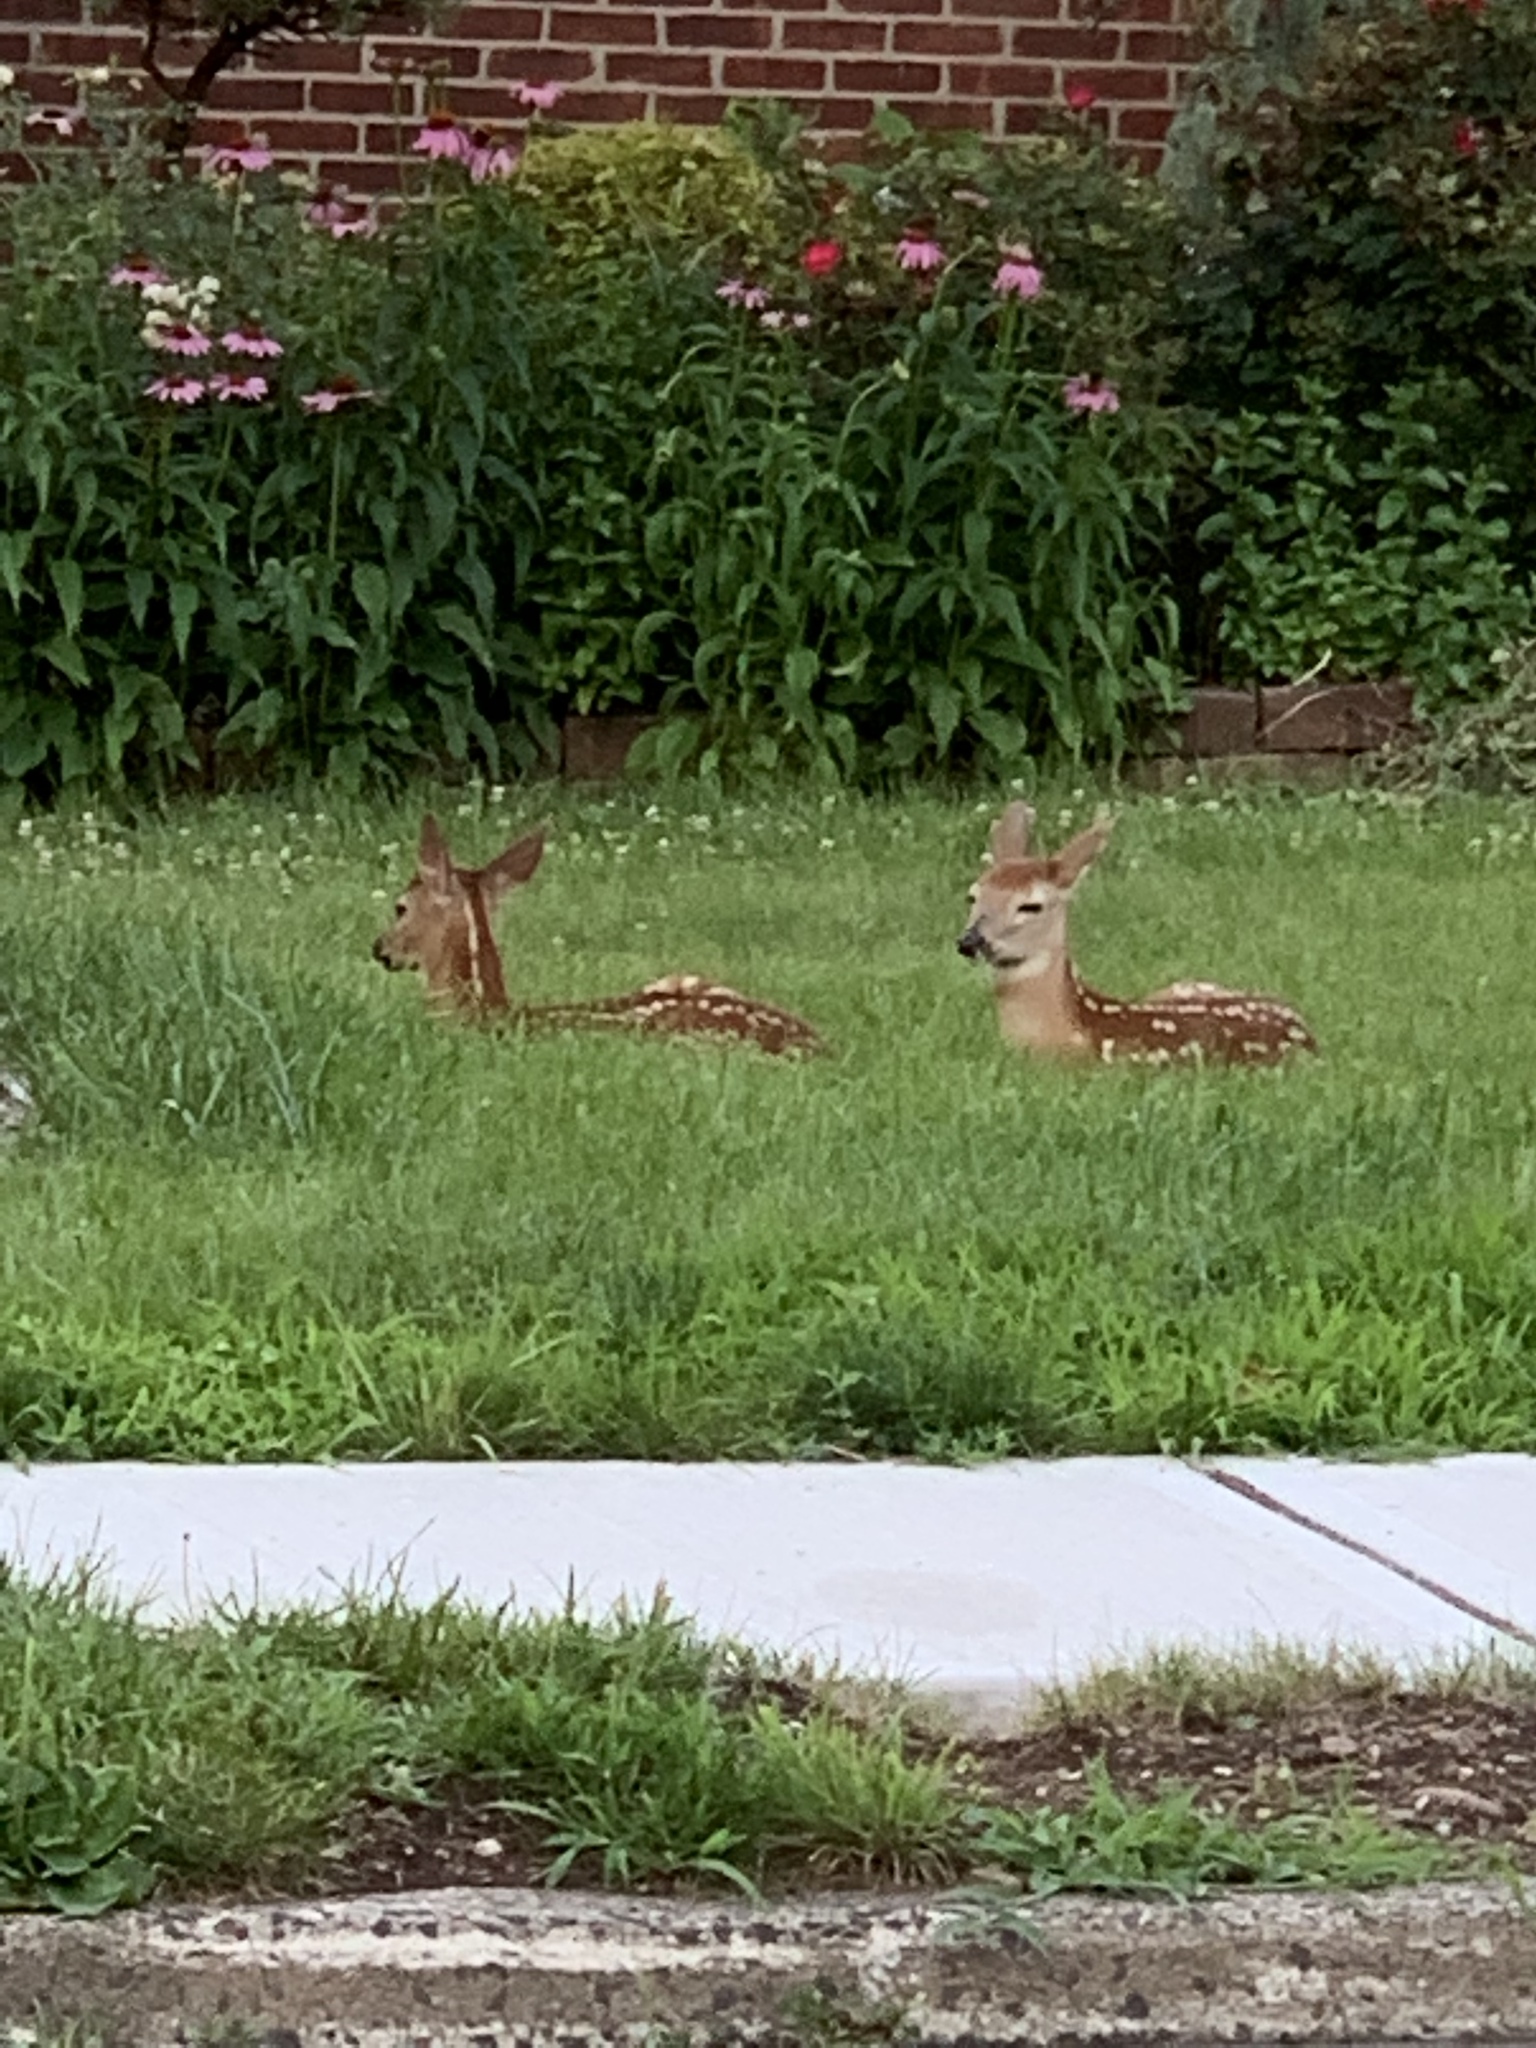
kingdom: Animalia
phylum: Chordata
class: Mammalia
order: Artiodactyla
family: Cervidae
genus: Odocoileus
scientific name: Odocoileus virginianus
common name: White-tailed deer
